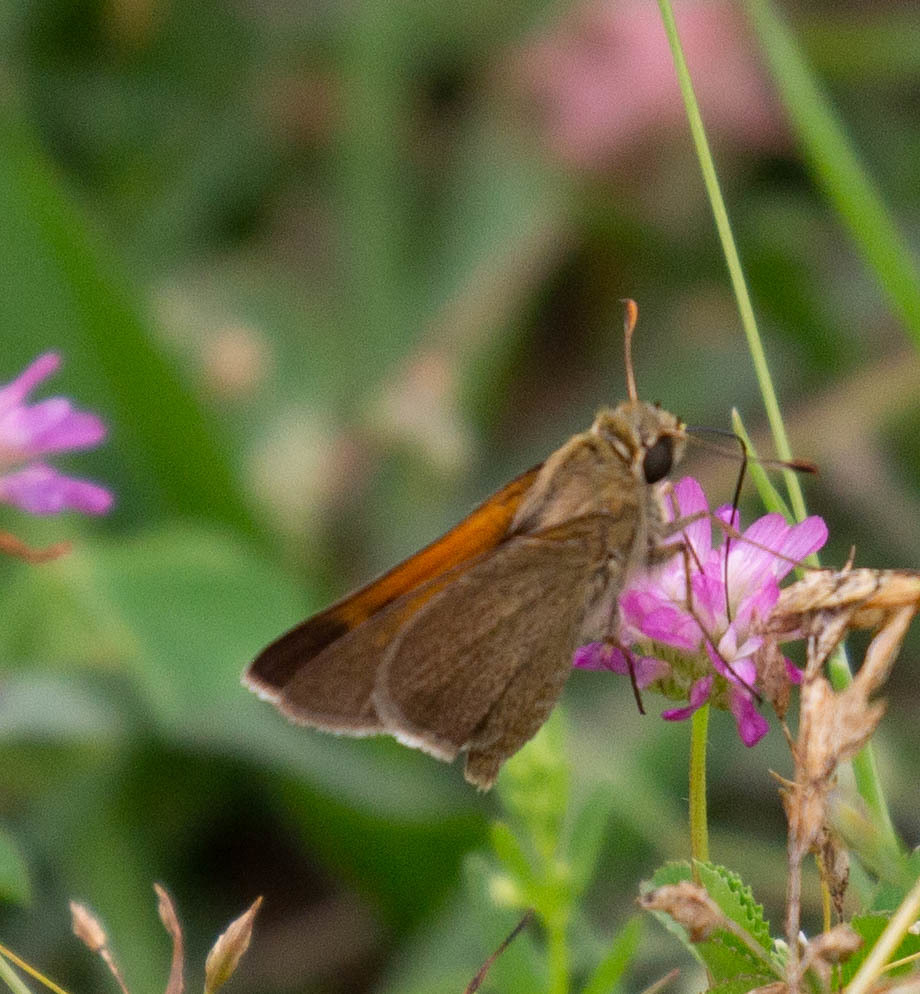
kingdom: Animalia
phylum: Arthropoda
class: Insecta
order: Lepidoptera
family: Hesperiidae
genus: Polites
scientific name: Polites themistocles
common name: Tawny-edged skipper
